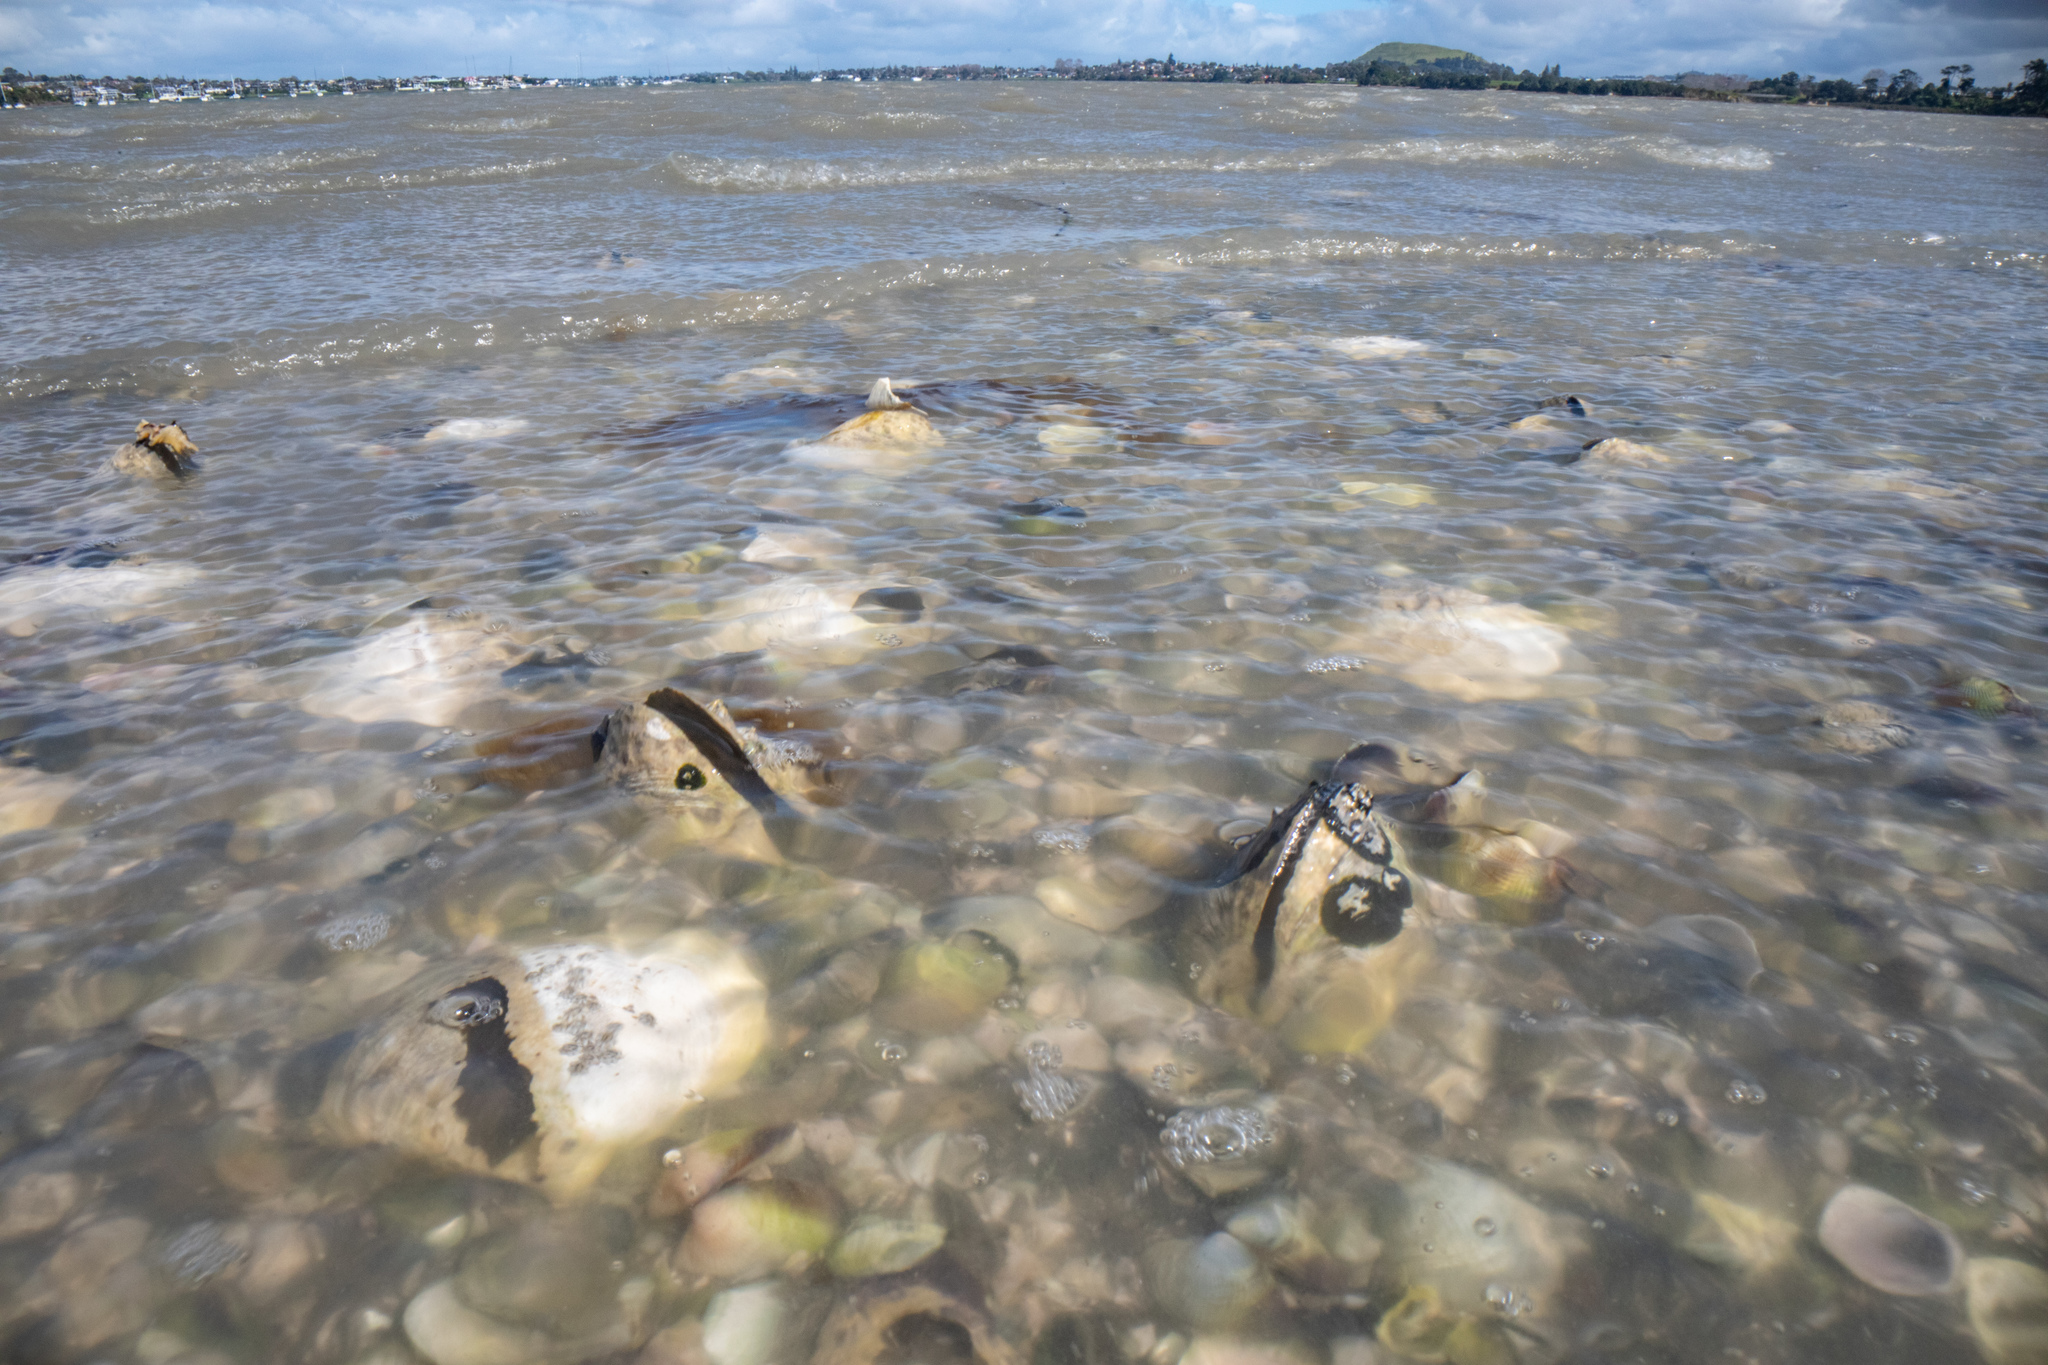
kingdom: Animalia
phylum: Mollusca
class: Bivalvia
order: Venerida
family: Mactridae
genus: Cyclomactra
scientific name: Cyclomactra ovata
